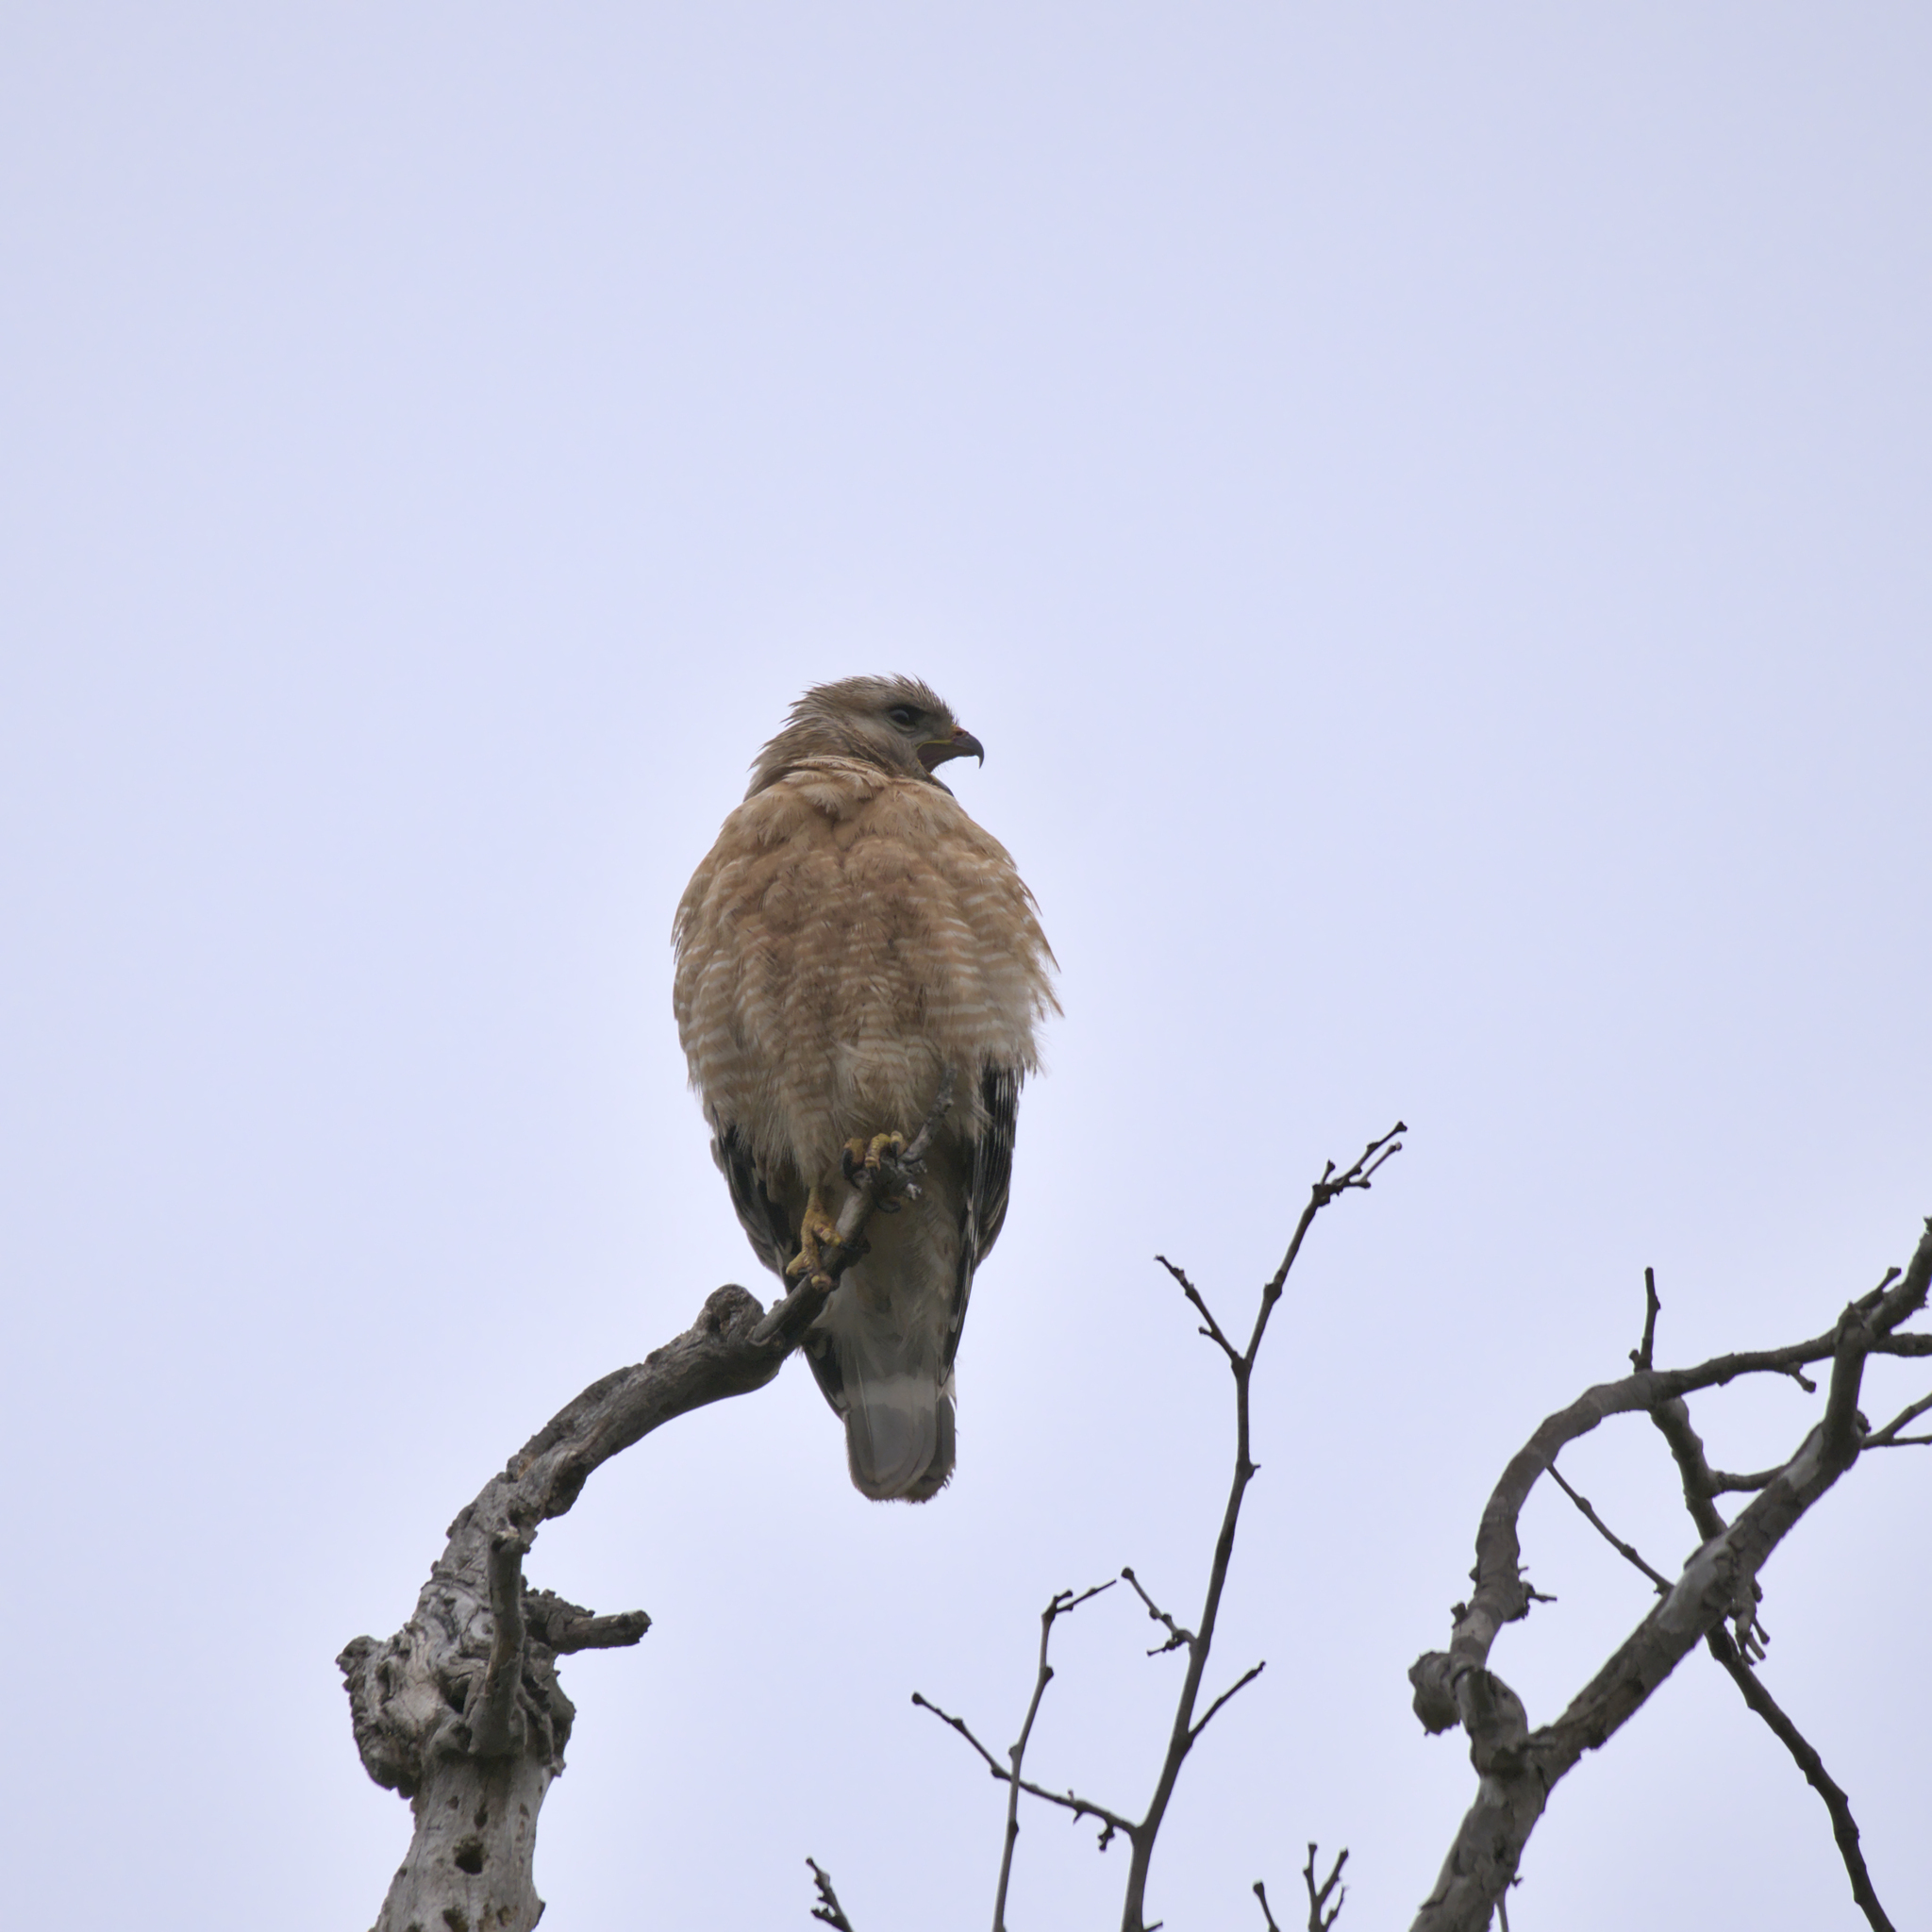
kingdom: Animalia
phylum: Chordata
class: Aves
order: Accipitriformes
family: Accipitridae
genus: Buteo
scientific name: Buteo lineatus
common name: Red-shouldered hawk
